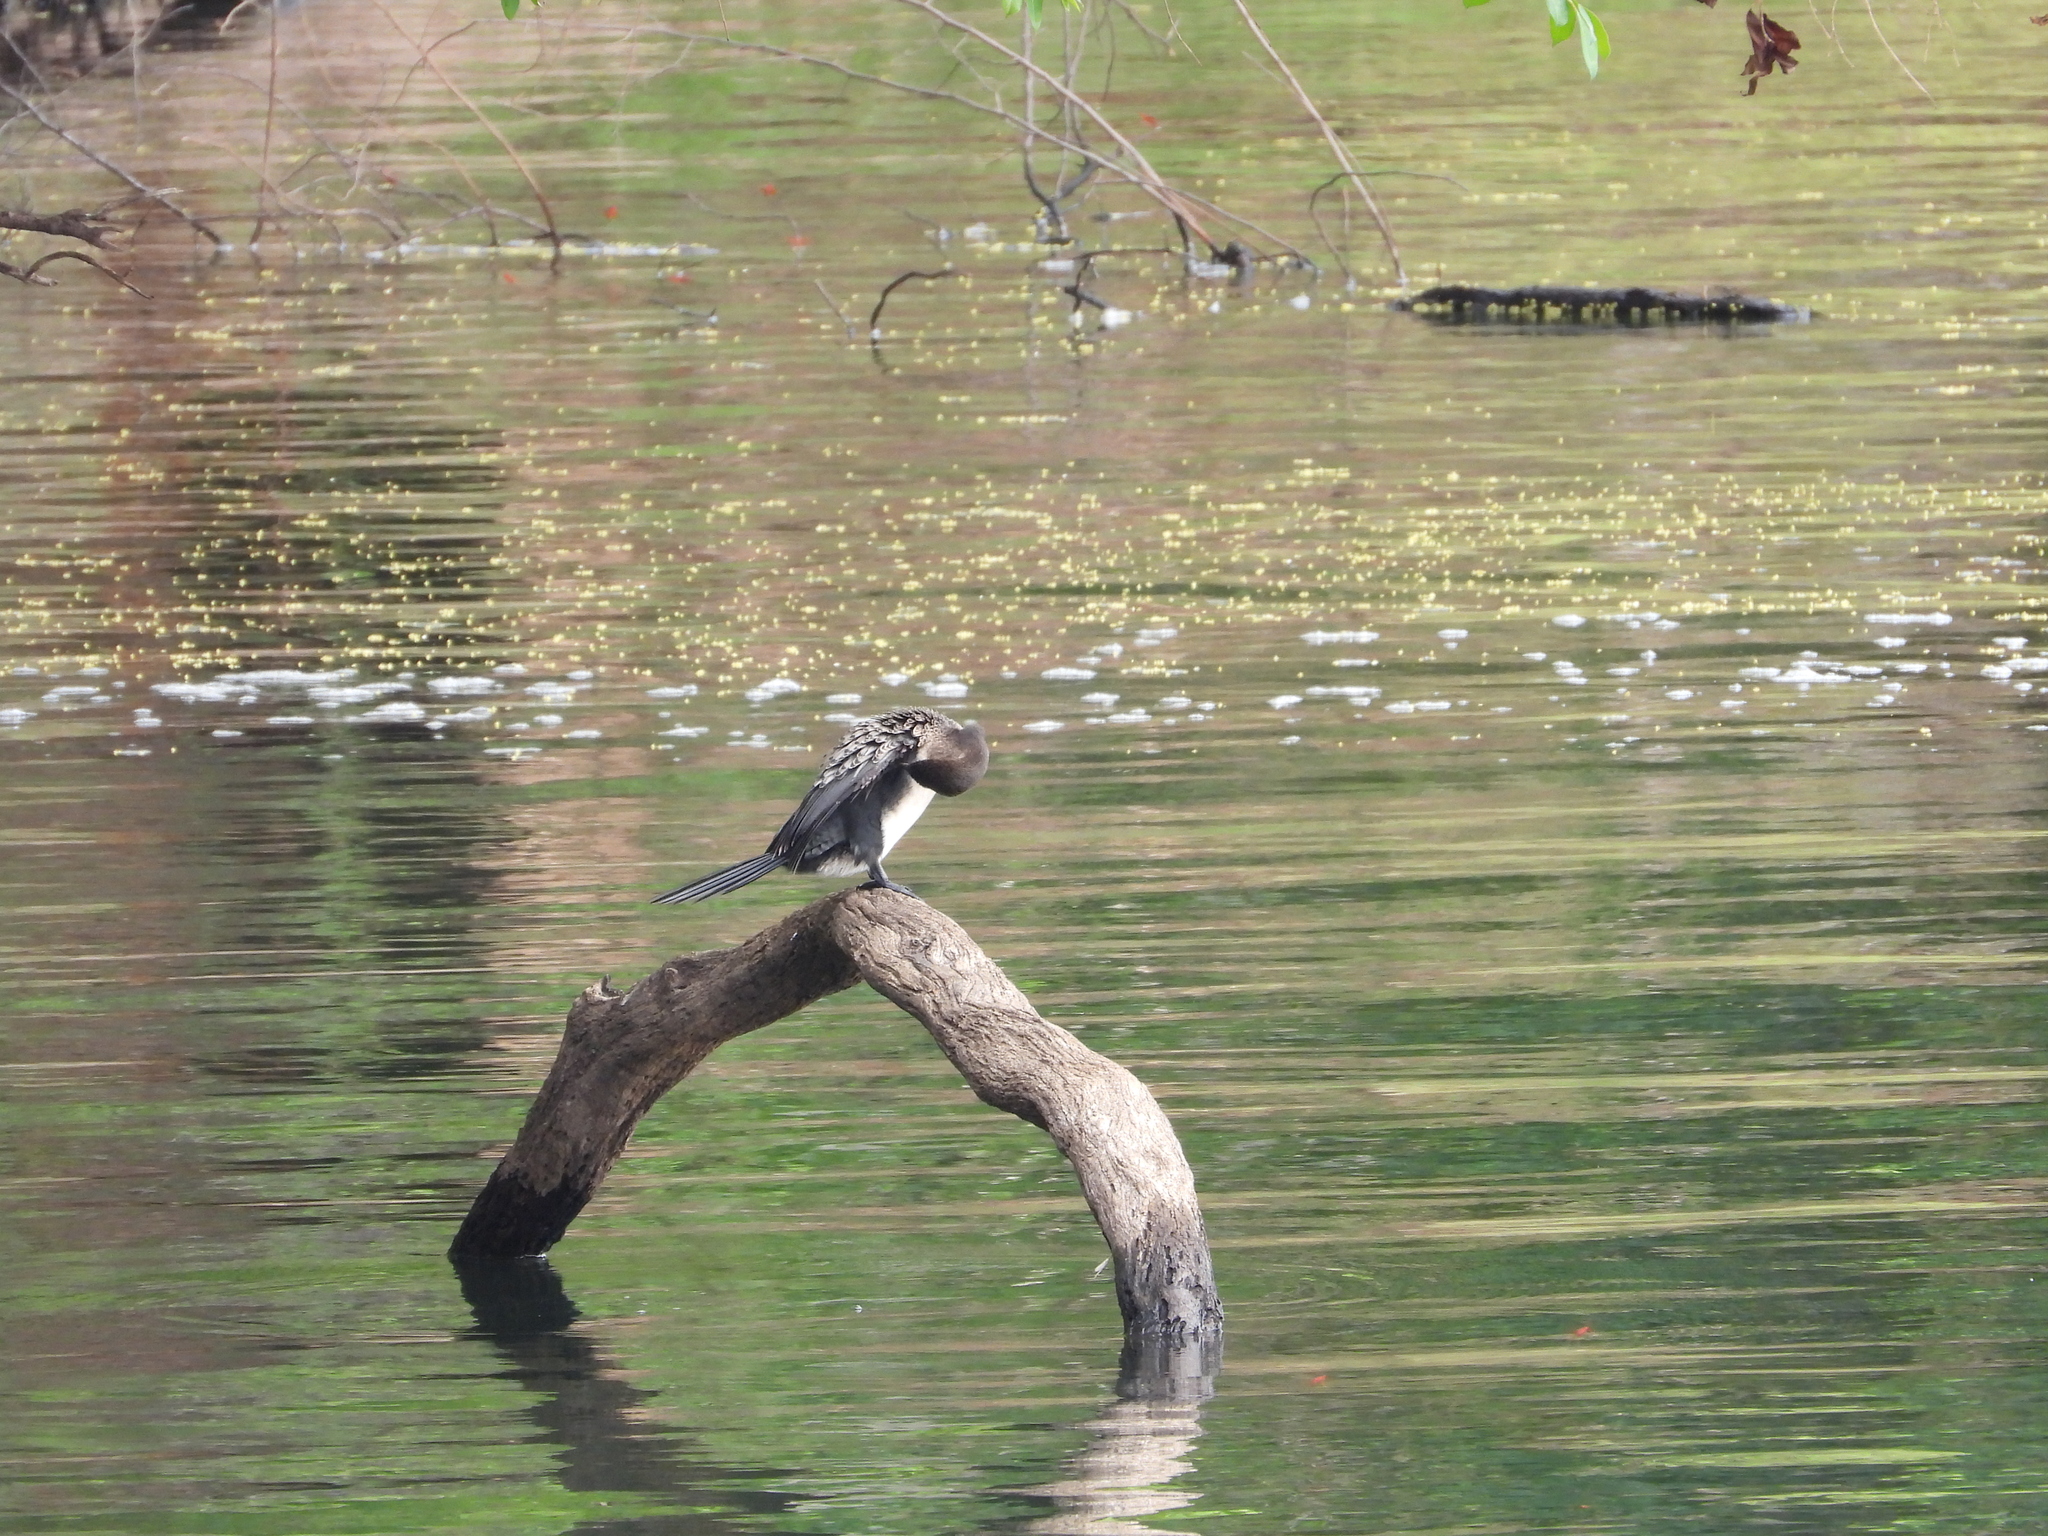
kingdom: Animalia
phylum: Chordata
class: Aves
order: Suliformes
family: Phalacrocoracidae
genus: Microcarbo
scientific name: Microcarbo africanus
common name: Long-tailed cormorant
